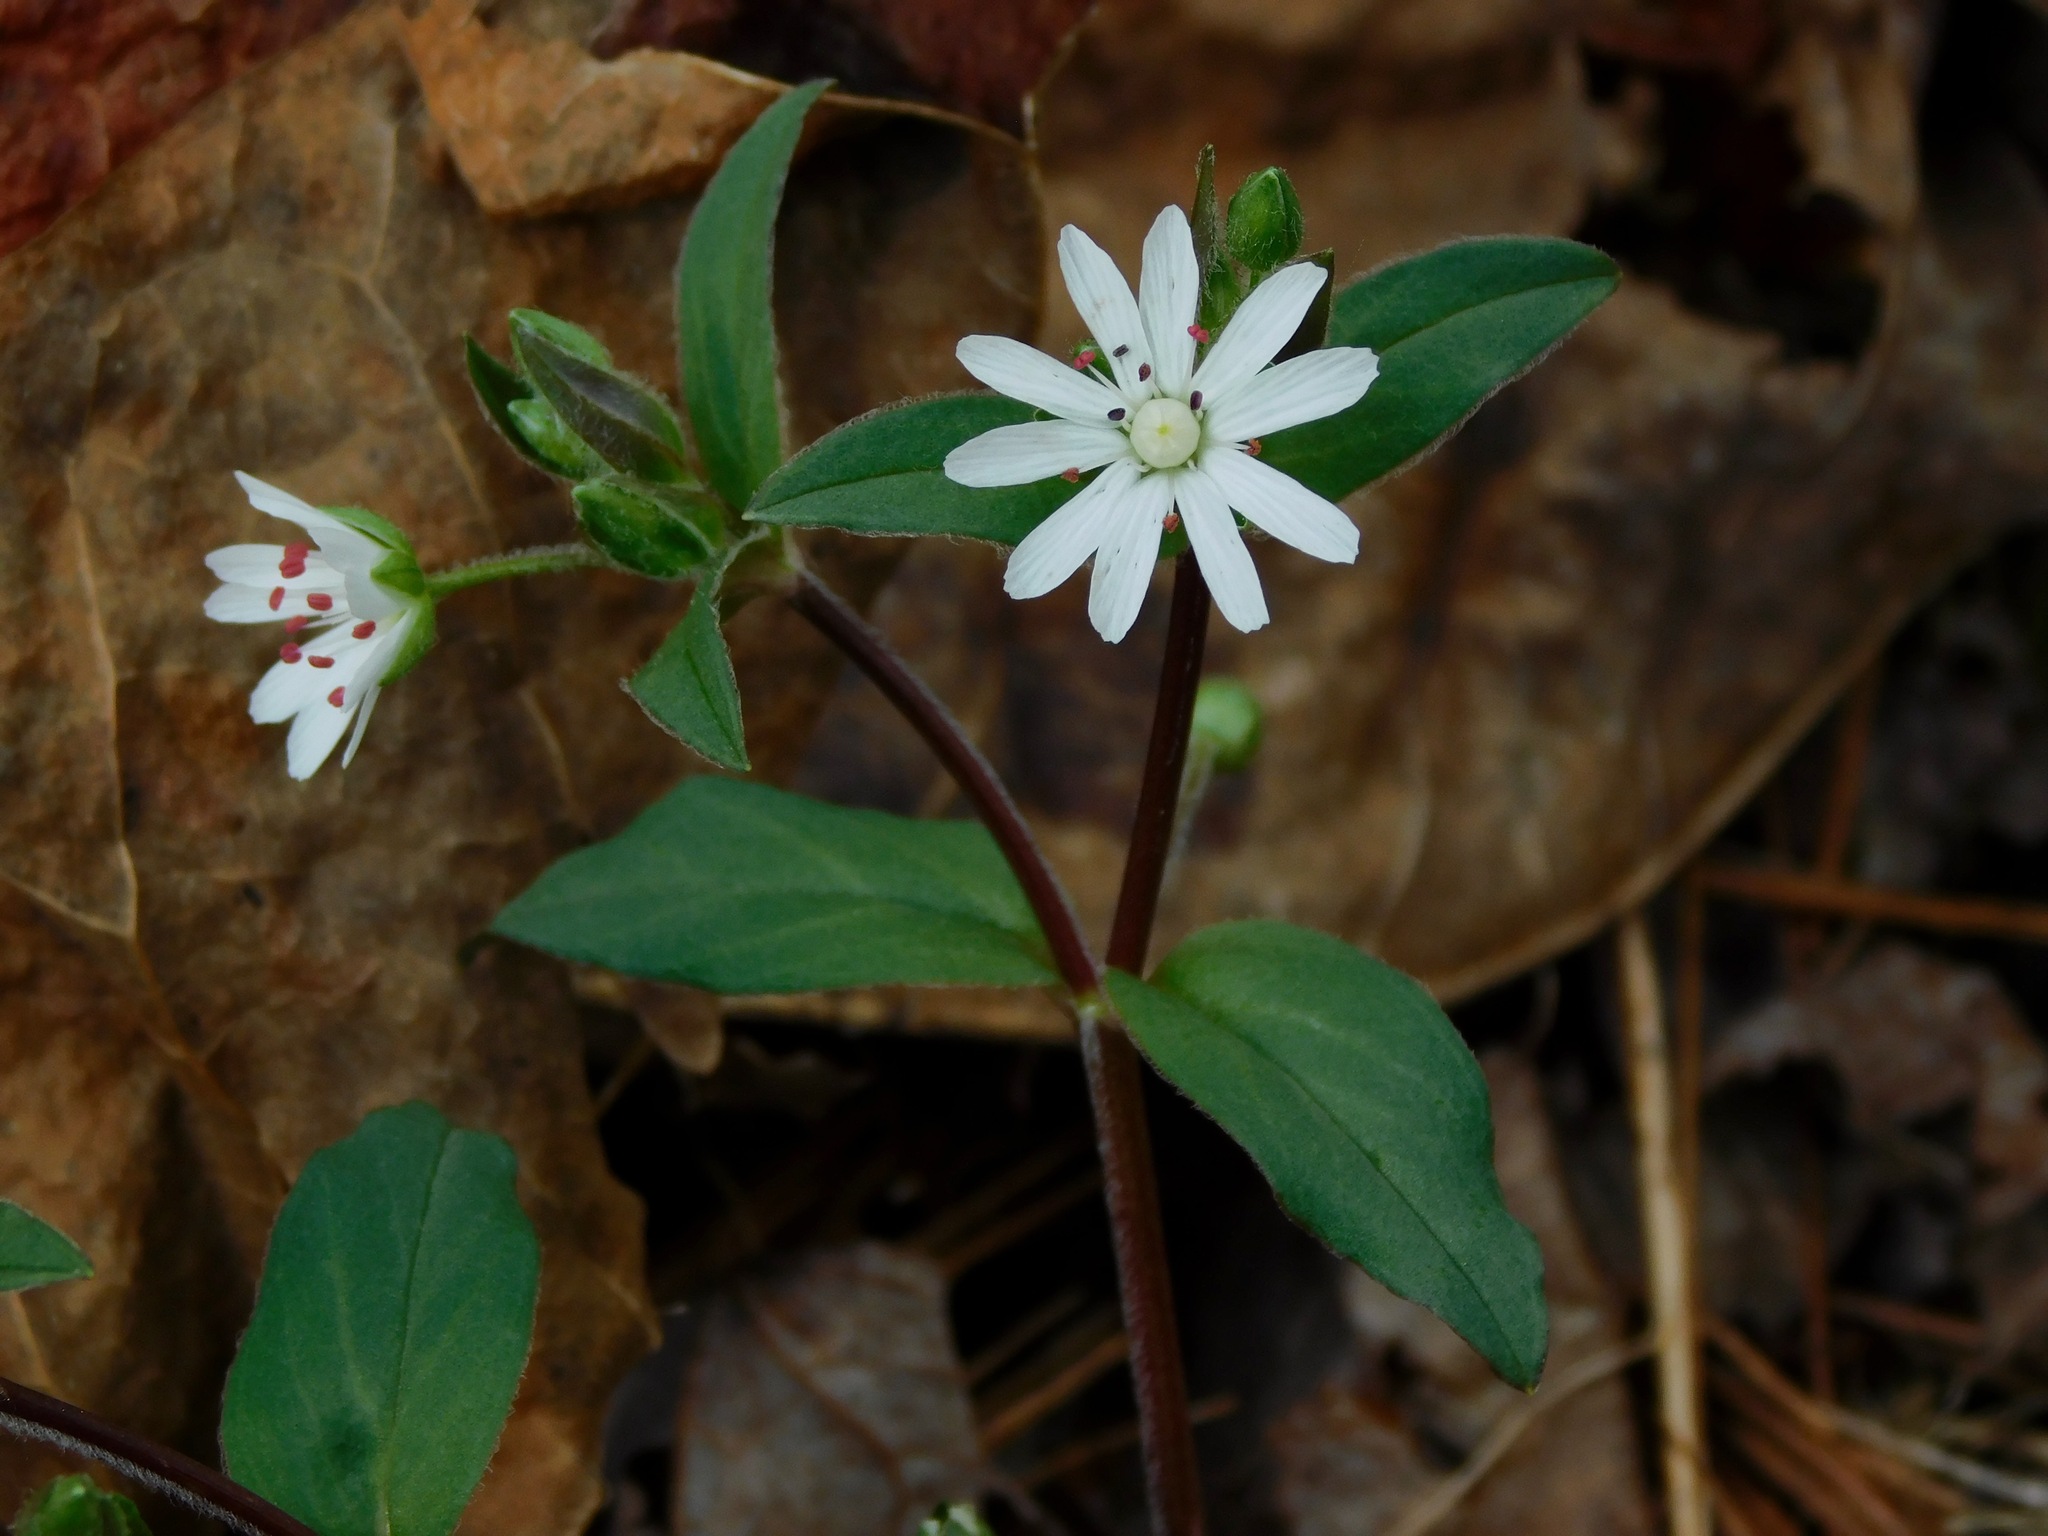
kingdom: Plantae
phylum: Tracheophyta
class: Magnoliopsida
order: Caryophyllales
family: Caryophyllaceae
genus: Stellaria
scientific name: Stellaria pubera
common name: Star chickweed
